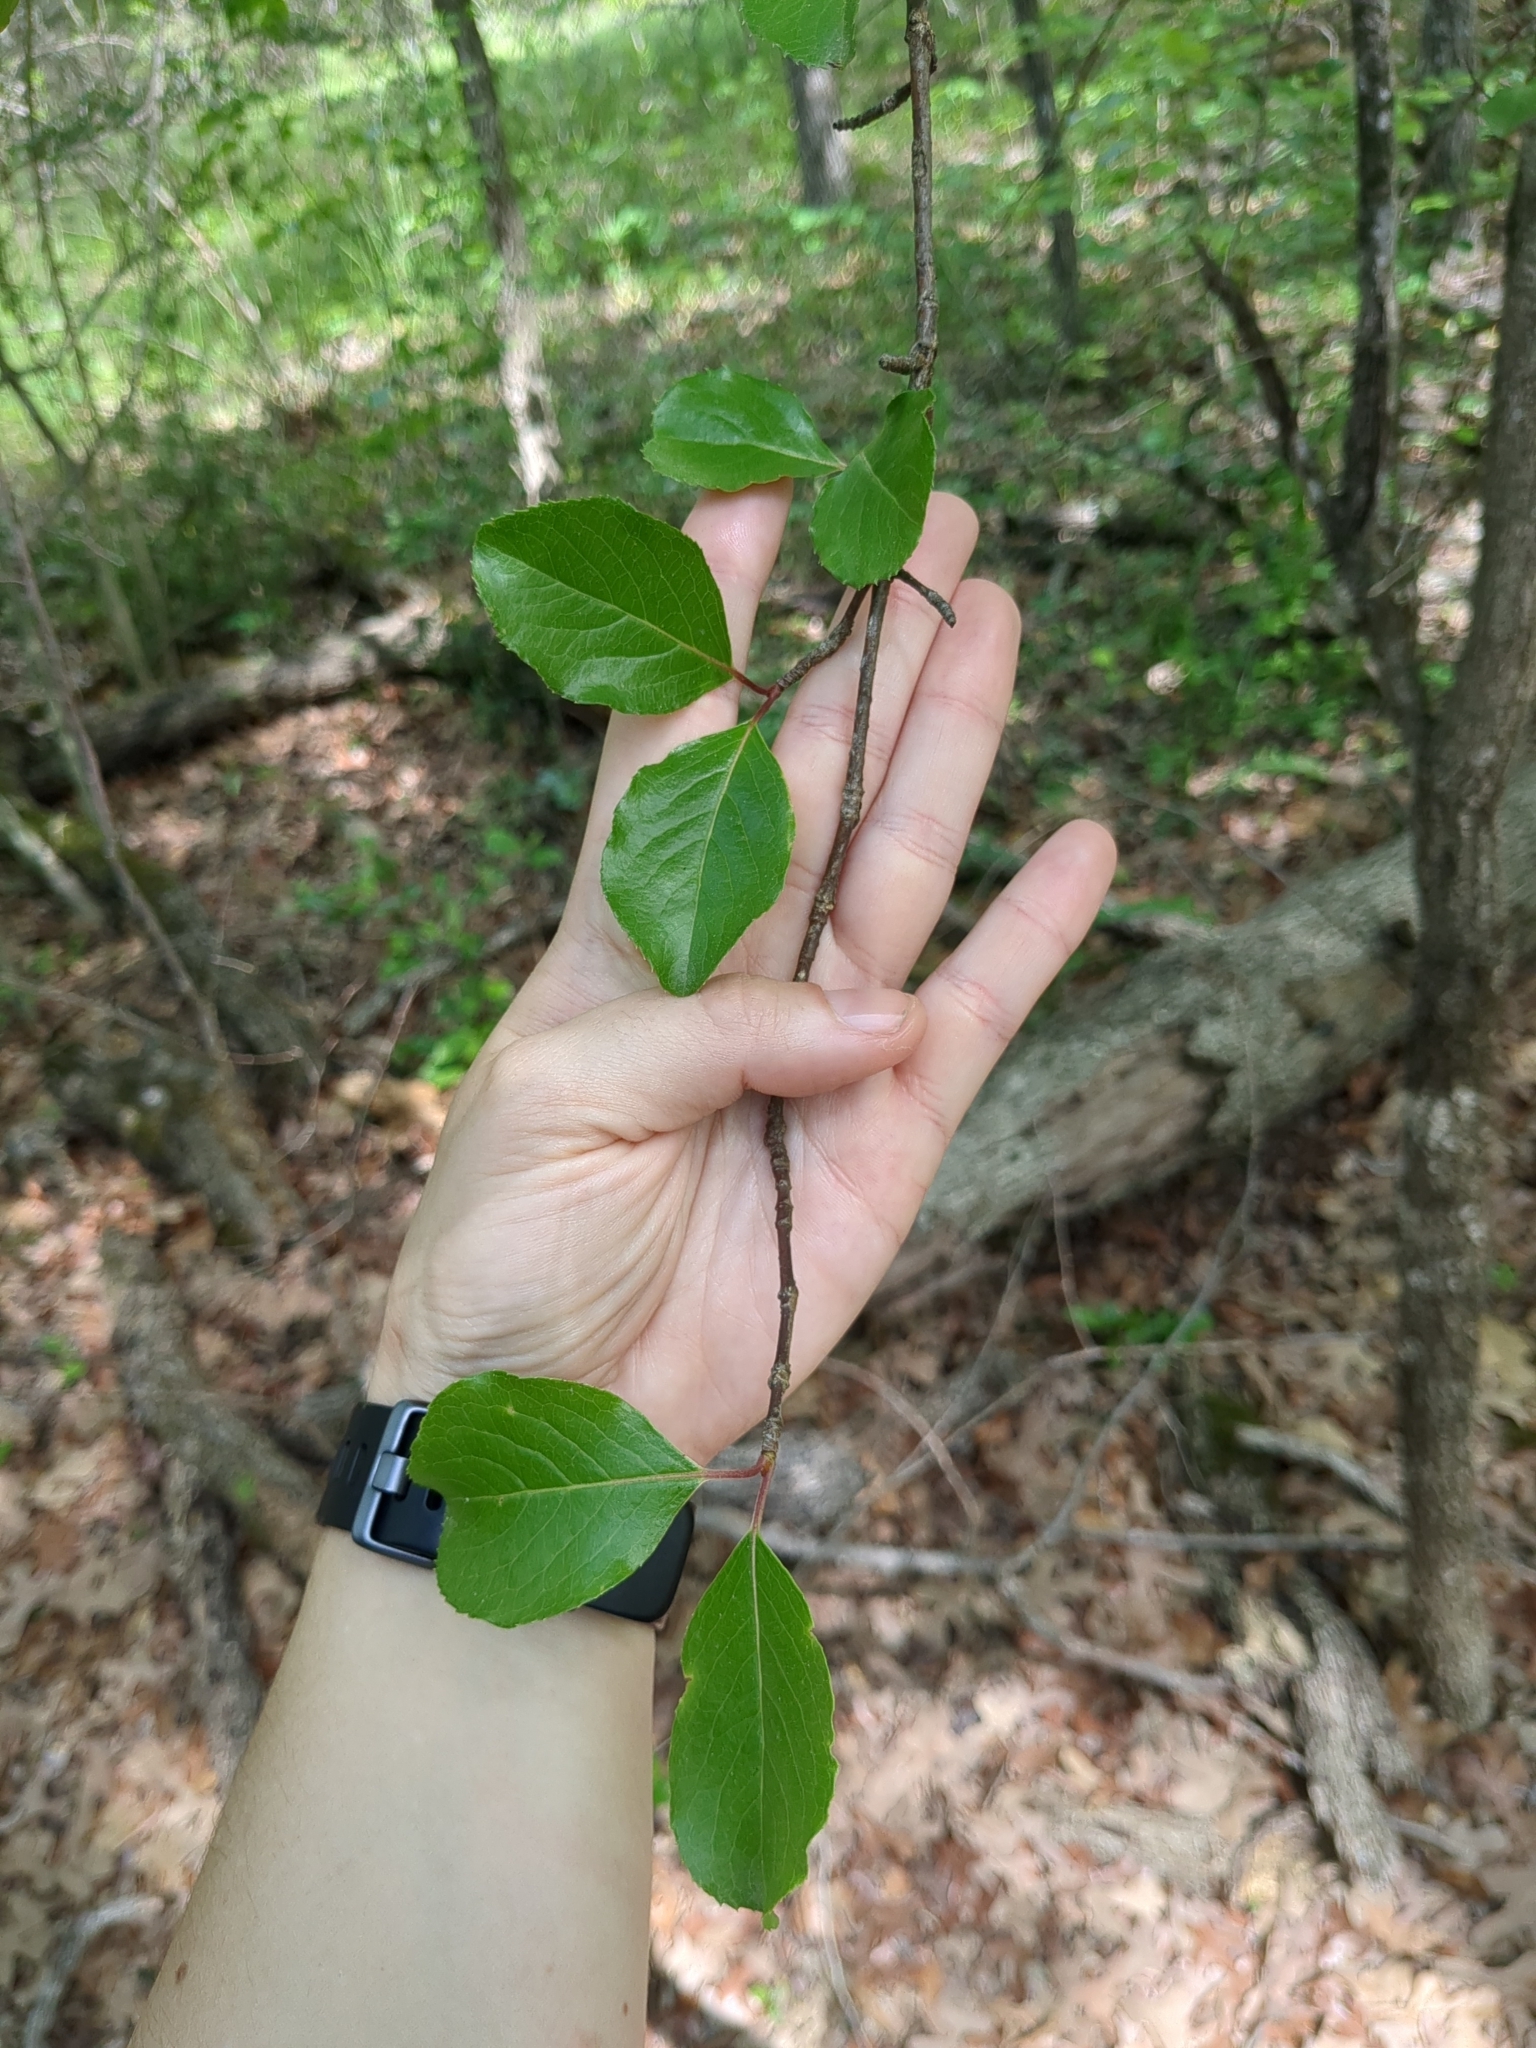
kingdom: Plantae
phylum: Tracheophyta
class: Magnoliopsida
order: Dipsacales
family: Viburnaceae
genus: Viburnum
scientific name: Viburnum rufidulum
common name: Blue haw
